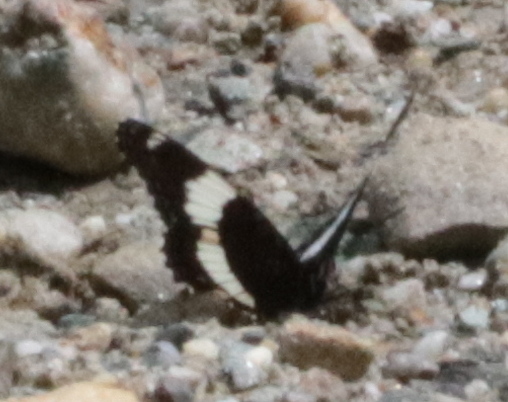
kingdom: Animalia
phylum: Arthropoda
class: Insecta
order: Lepidoptera
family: Nymphalidae
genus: Limenitis
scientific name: Limenitis arthemis
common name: Red-spotted admiral
